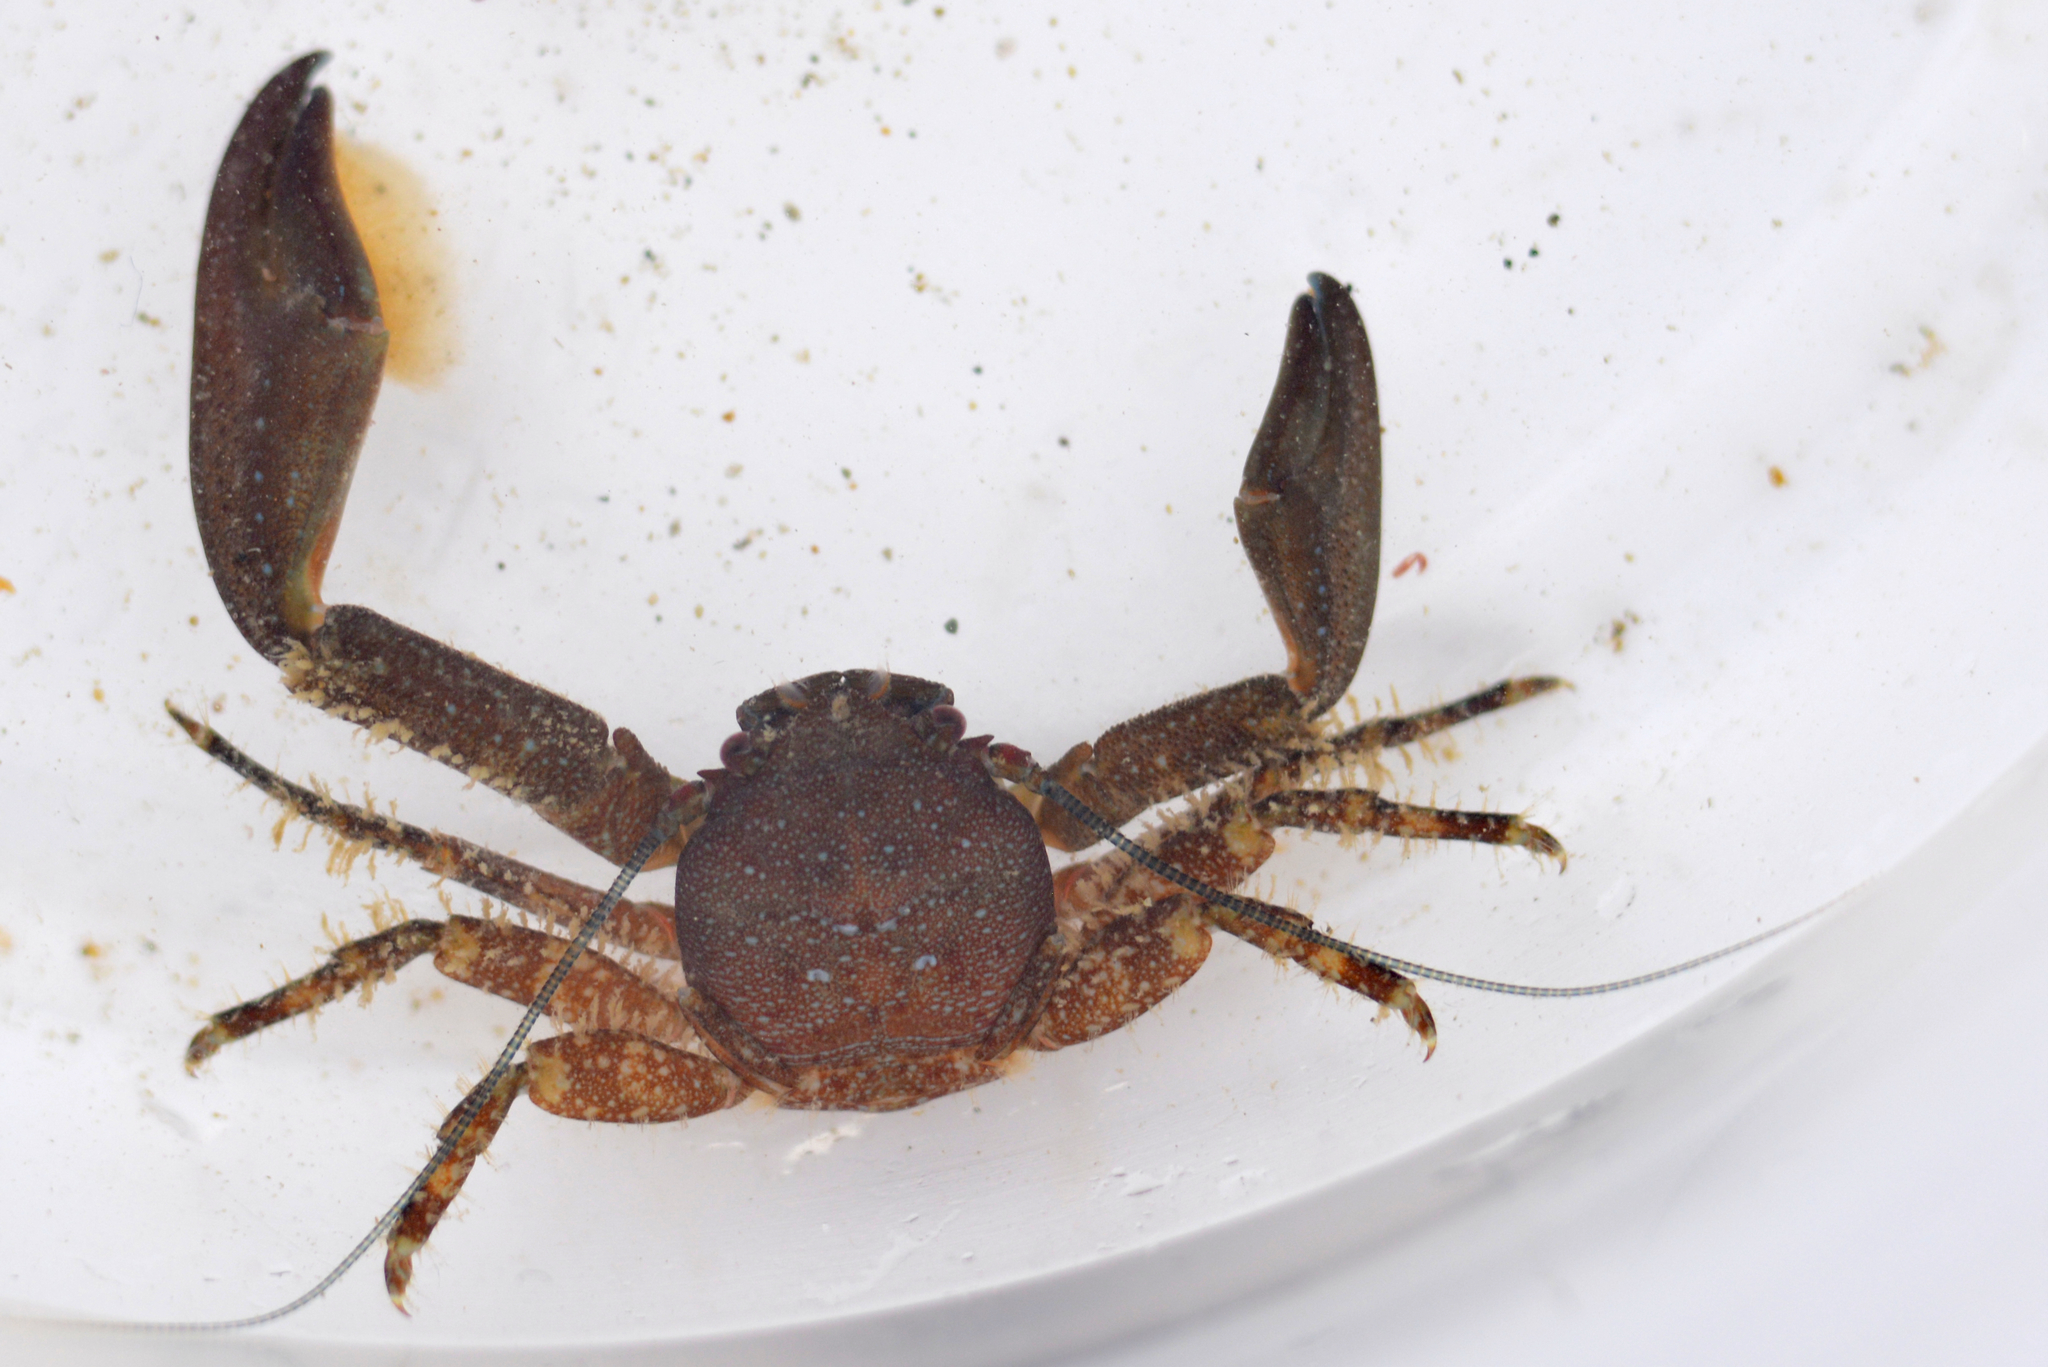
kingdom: Animalia
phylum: Arthropoda
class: Malacostraca
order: Decapoda
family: Porcellanidae
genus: Petrolisthes
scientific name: Petrolisthes manimaculis
